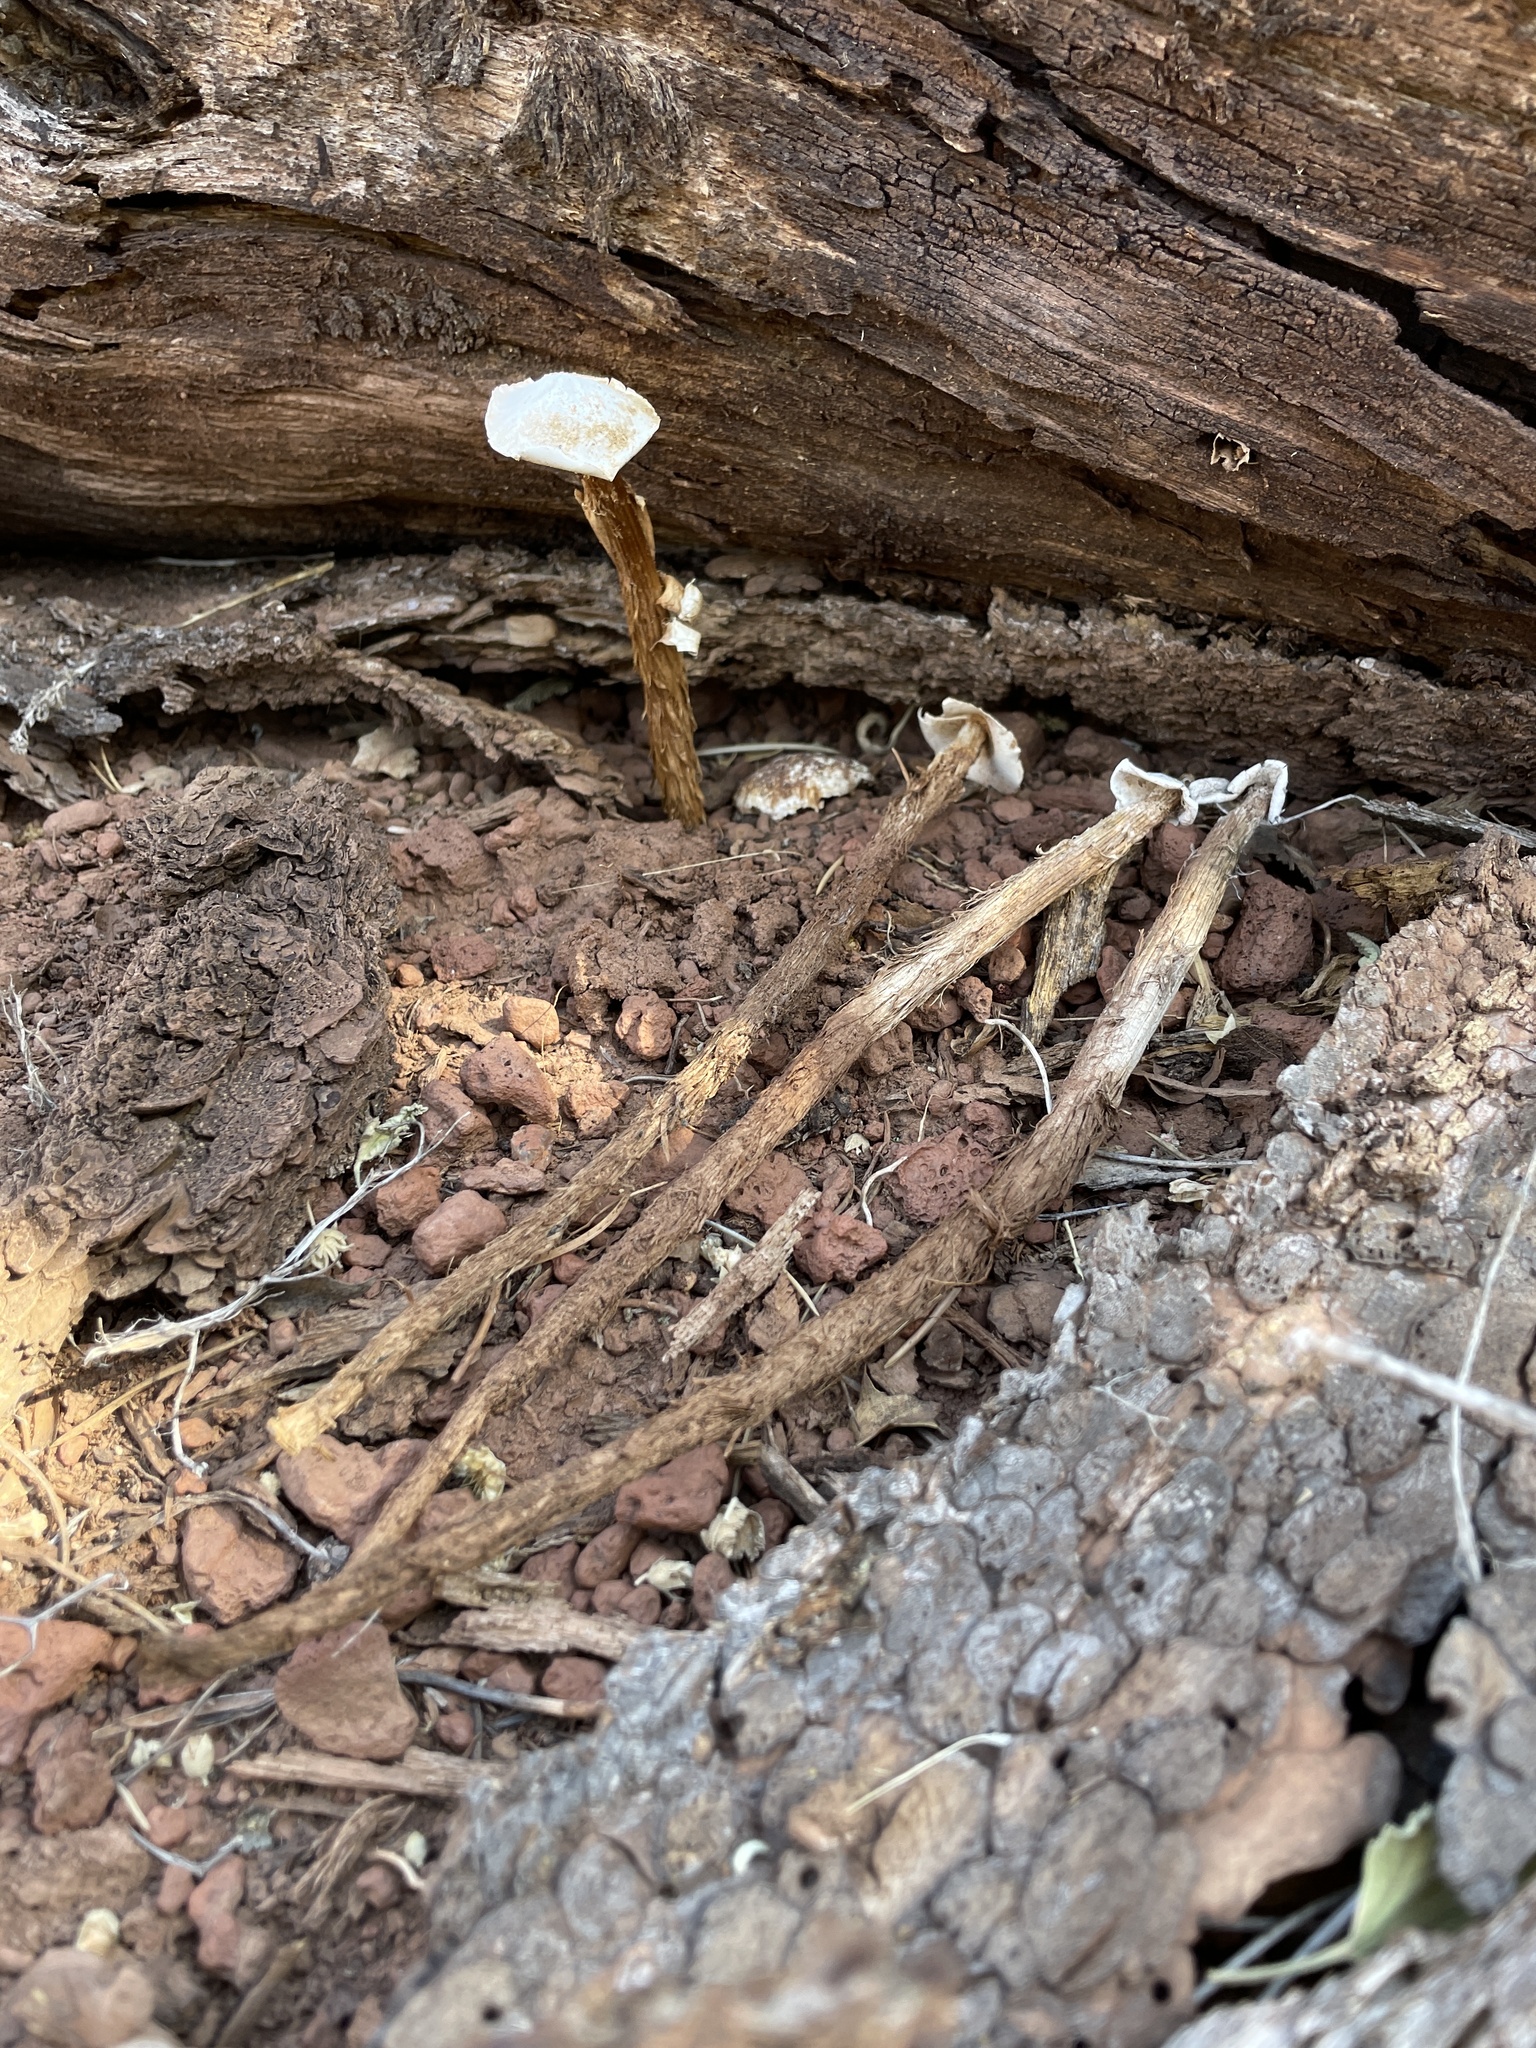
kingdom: Fungi
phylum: Basidiomycota
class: Agaricomycetes
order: Agaricales
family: Agaricaceae
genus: Battarrea
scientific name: Battarrea phalloides
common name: Sandy stiltball
